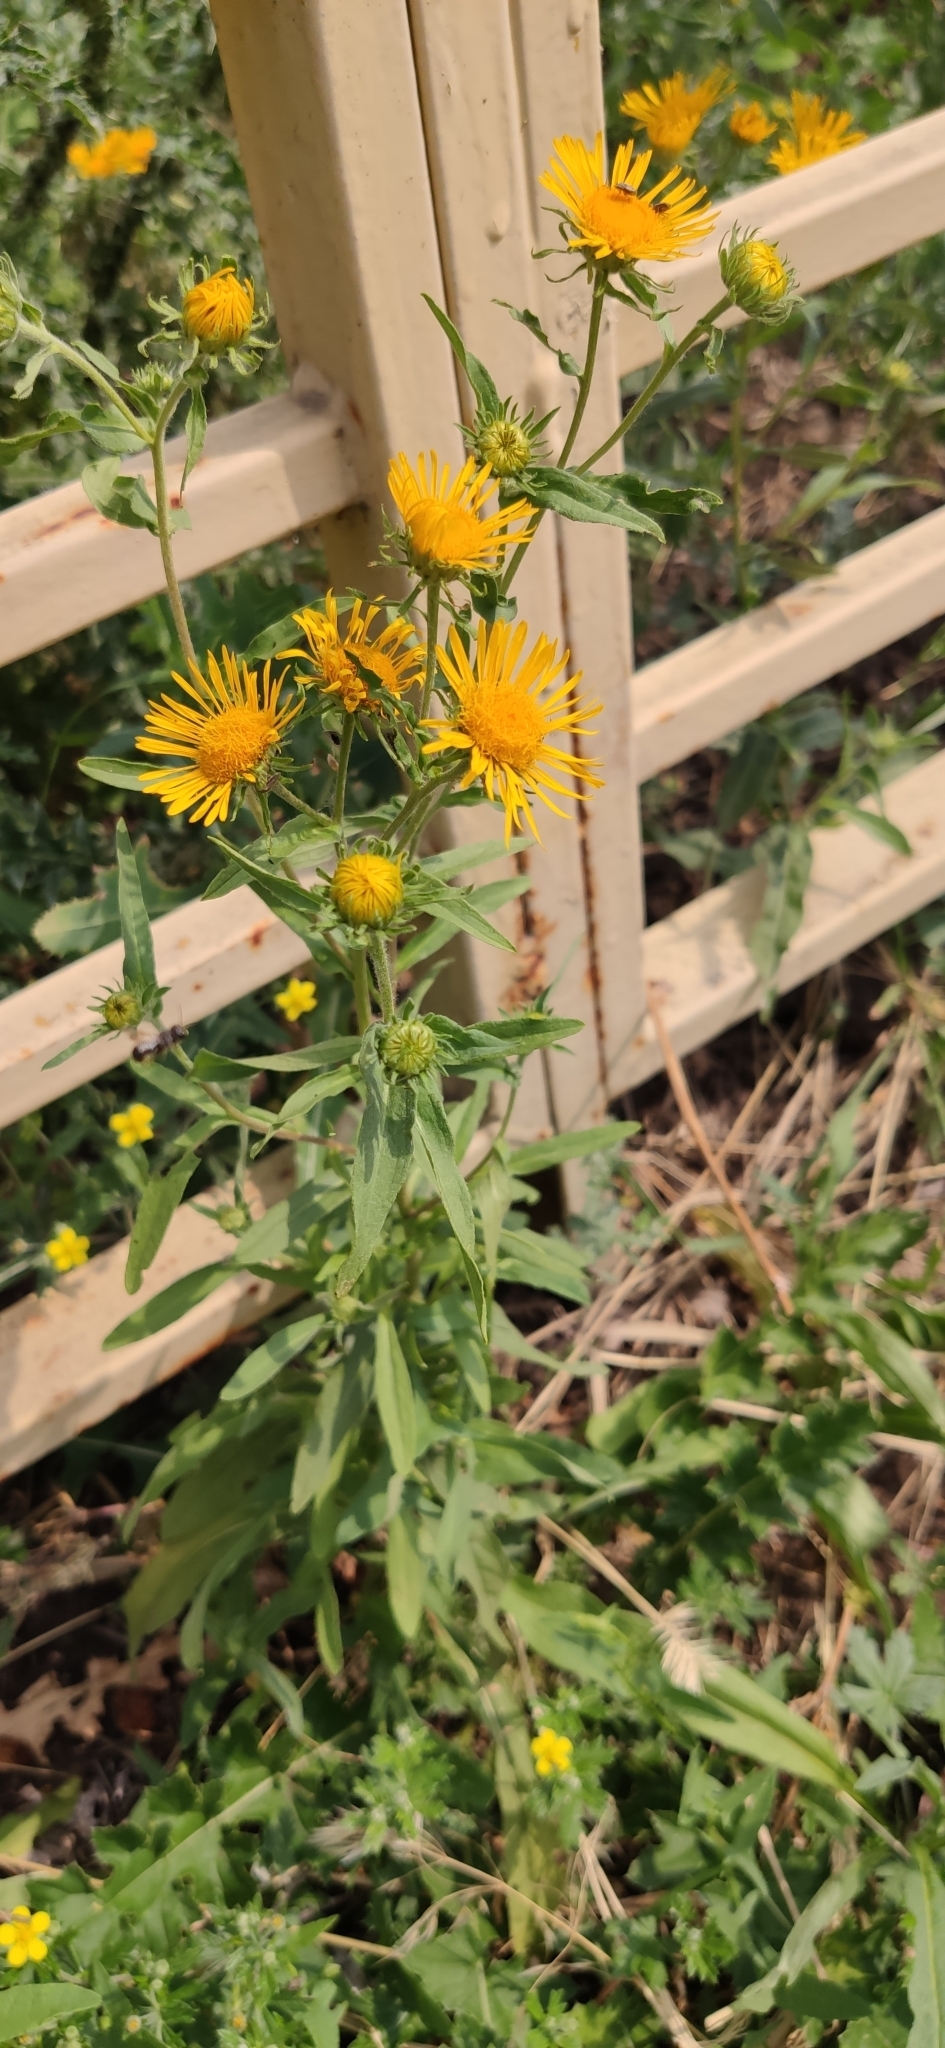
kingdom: Plantae
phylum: Tracheophyta
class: Magnoliopsida
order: Asterales
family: Asteraceae
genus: Pentanema
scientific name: Pentanema britannicum
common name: British elecampane
